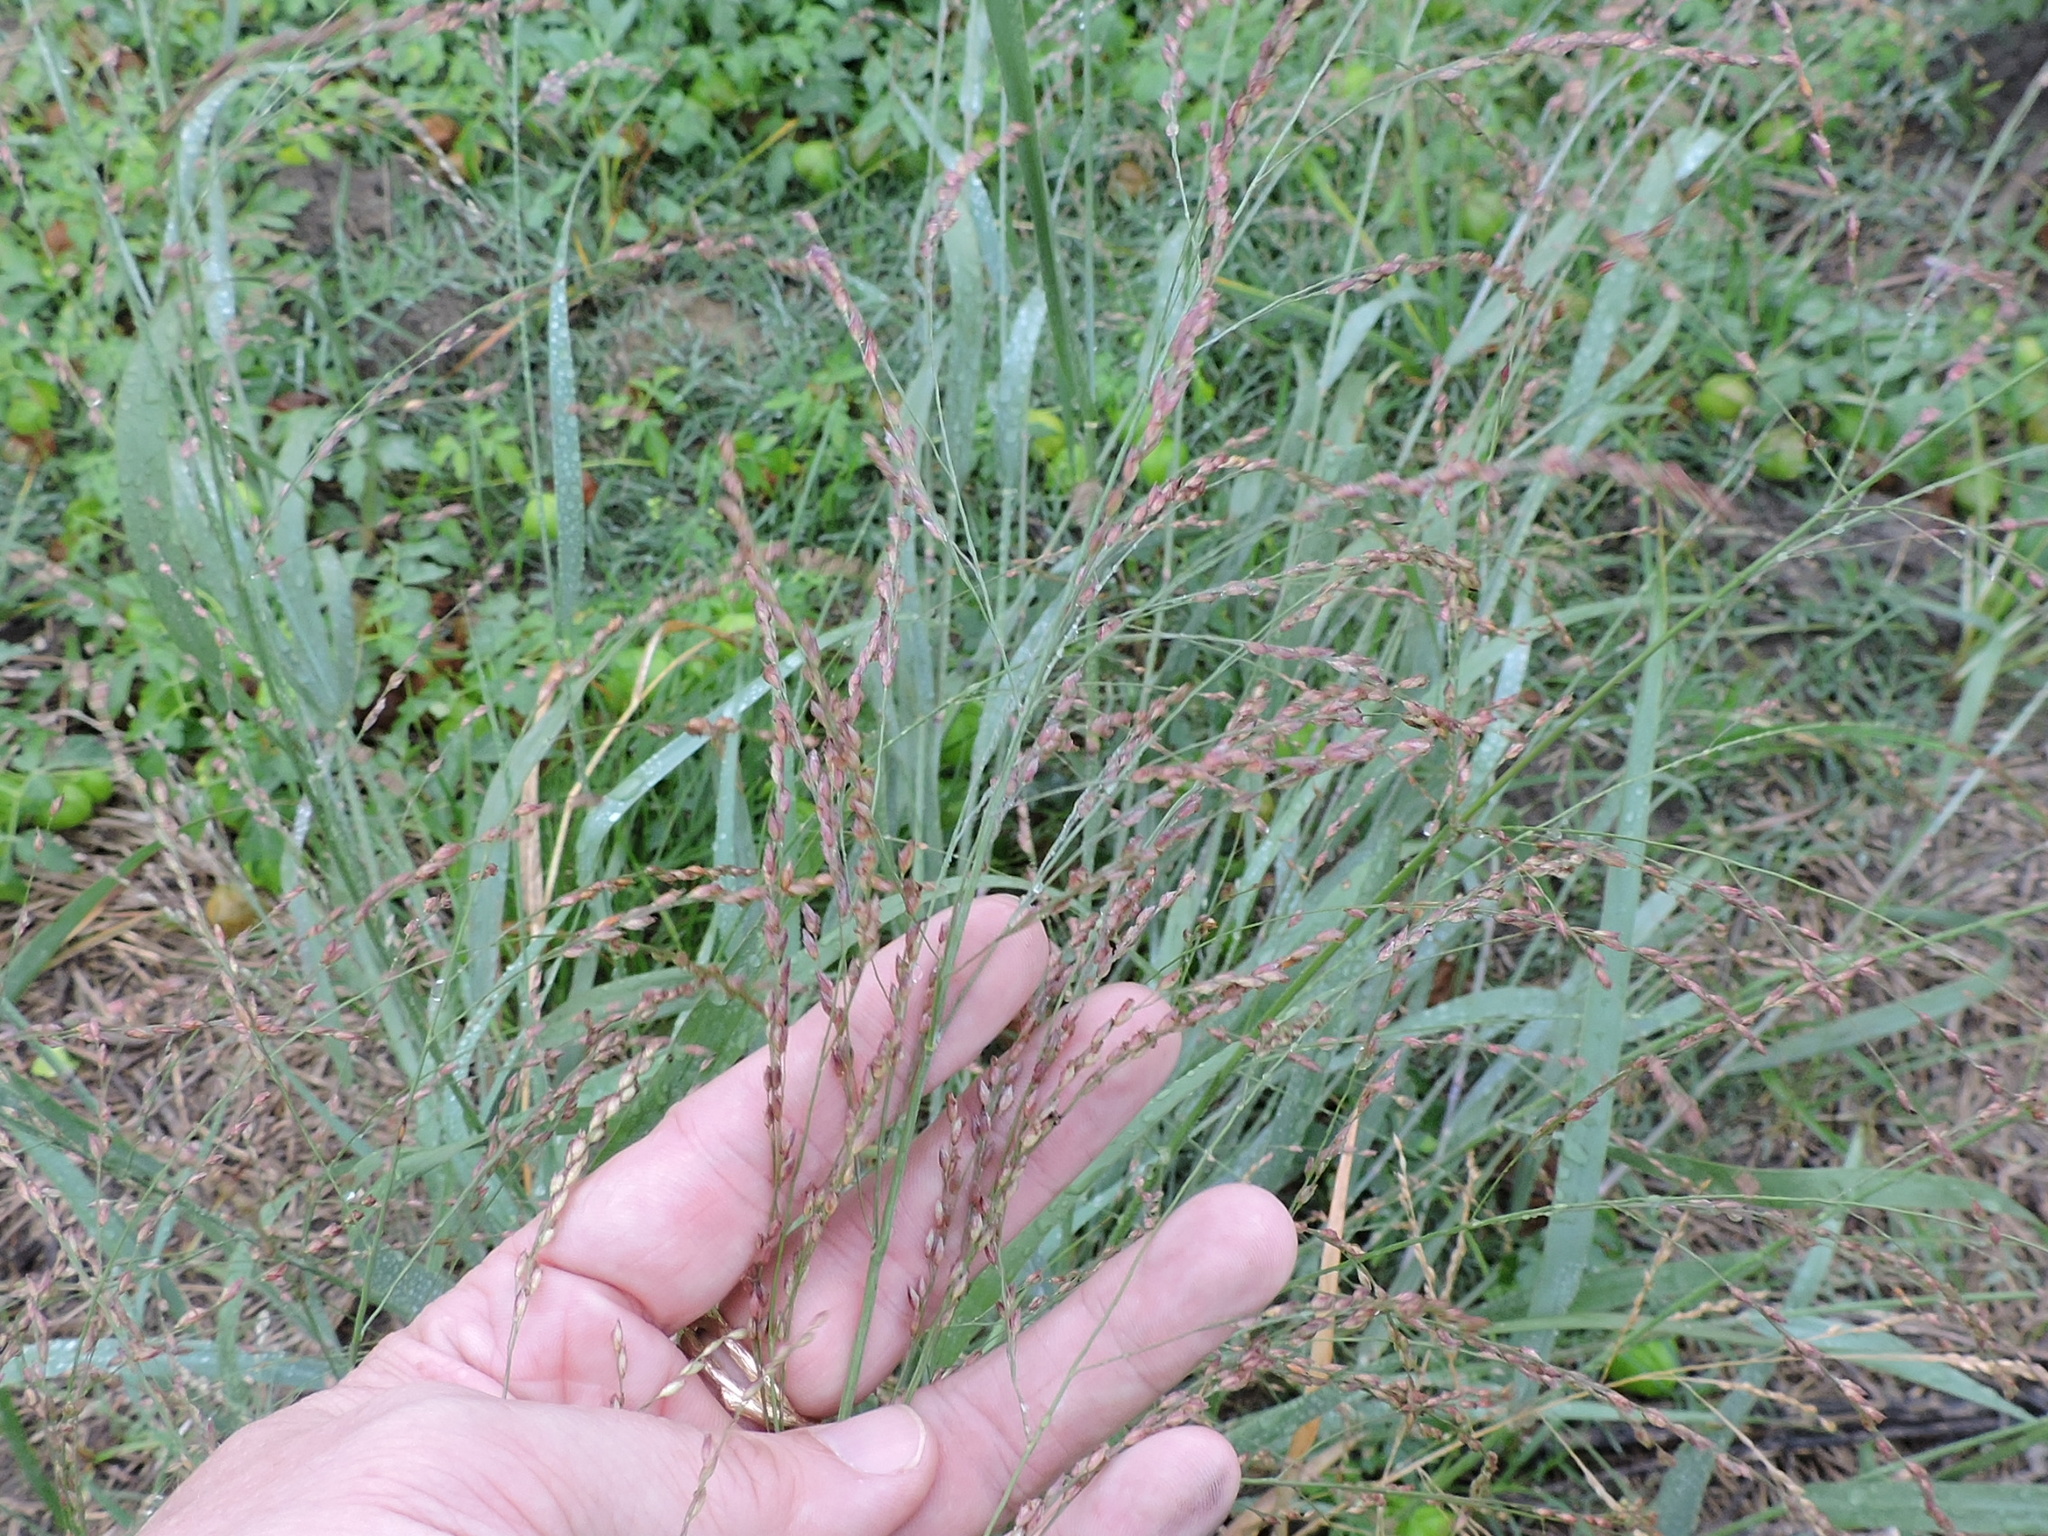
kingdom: Plantae
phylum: Tracheophyta
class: Liliopsida
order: Poales
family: Poaceae
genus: Panicum
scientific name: Panicum virgatum
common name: Switchgrass
